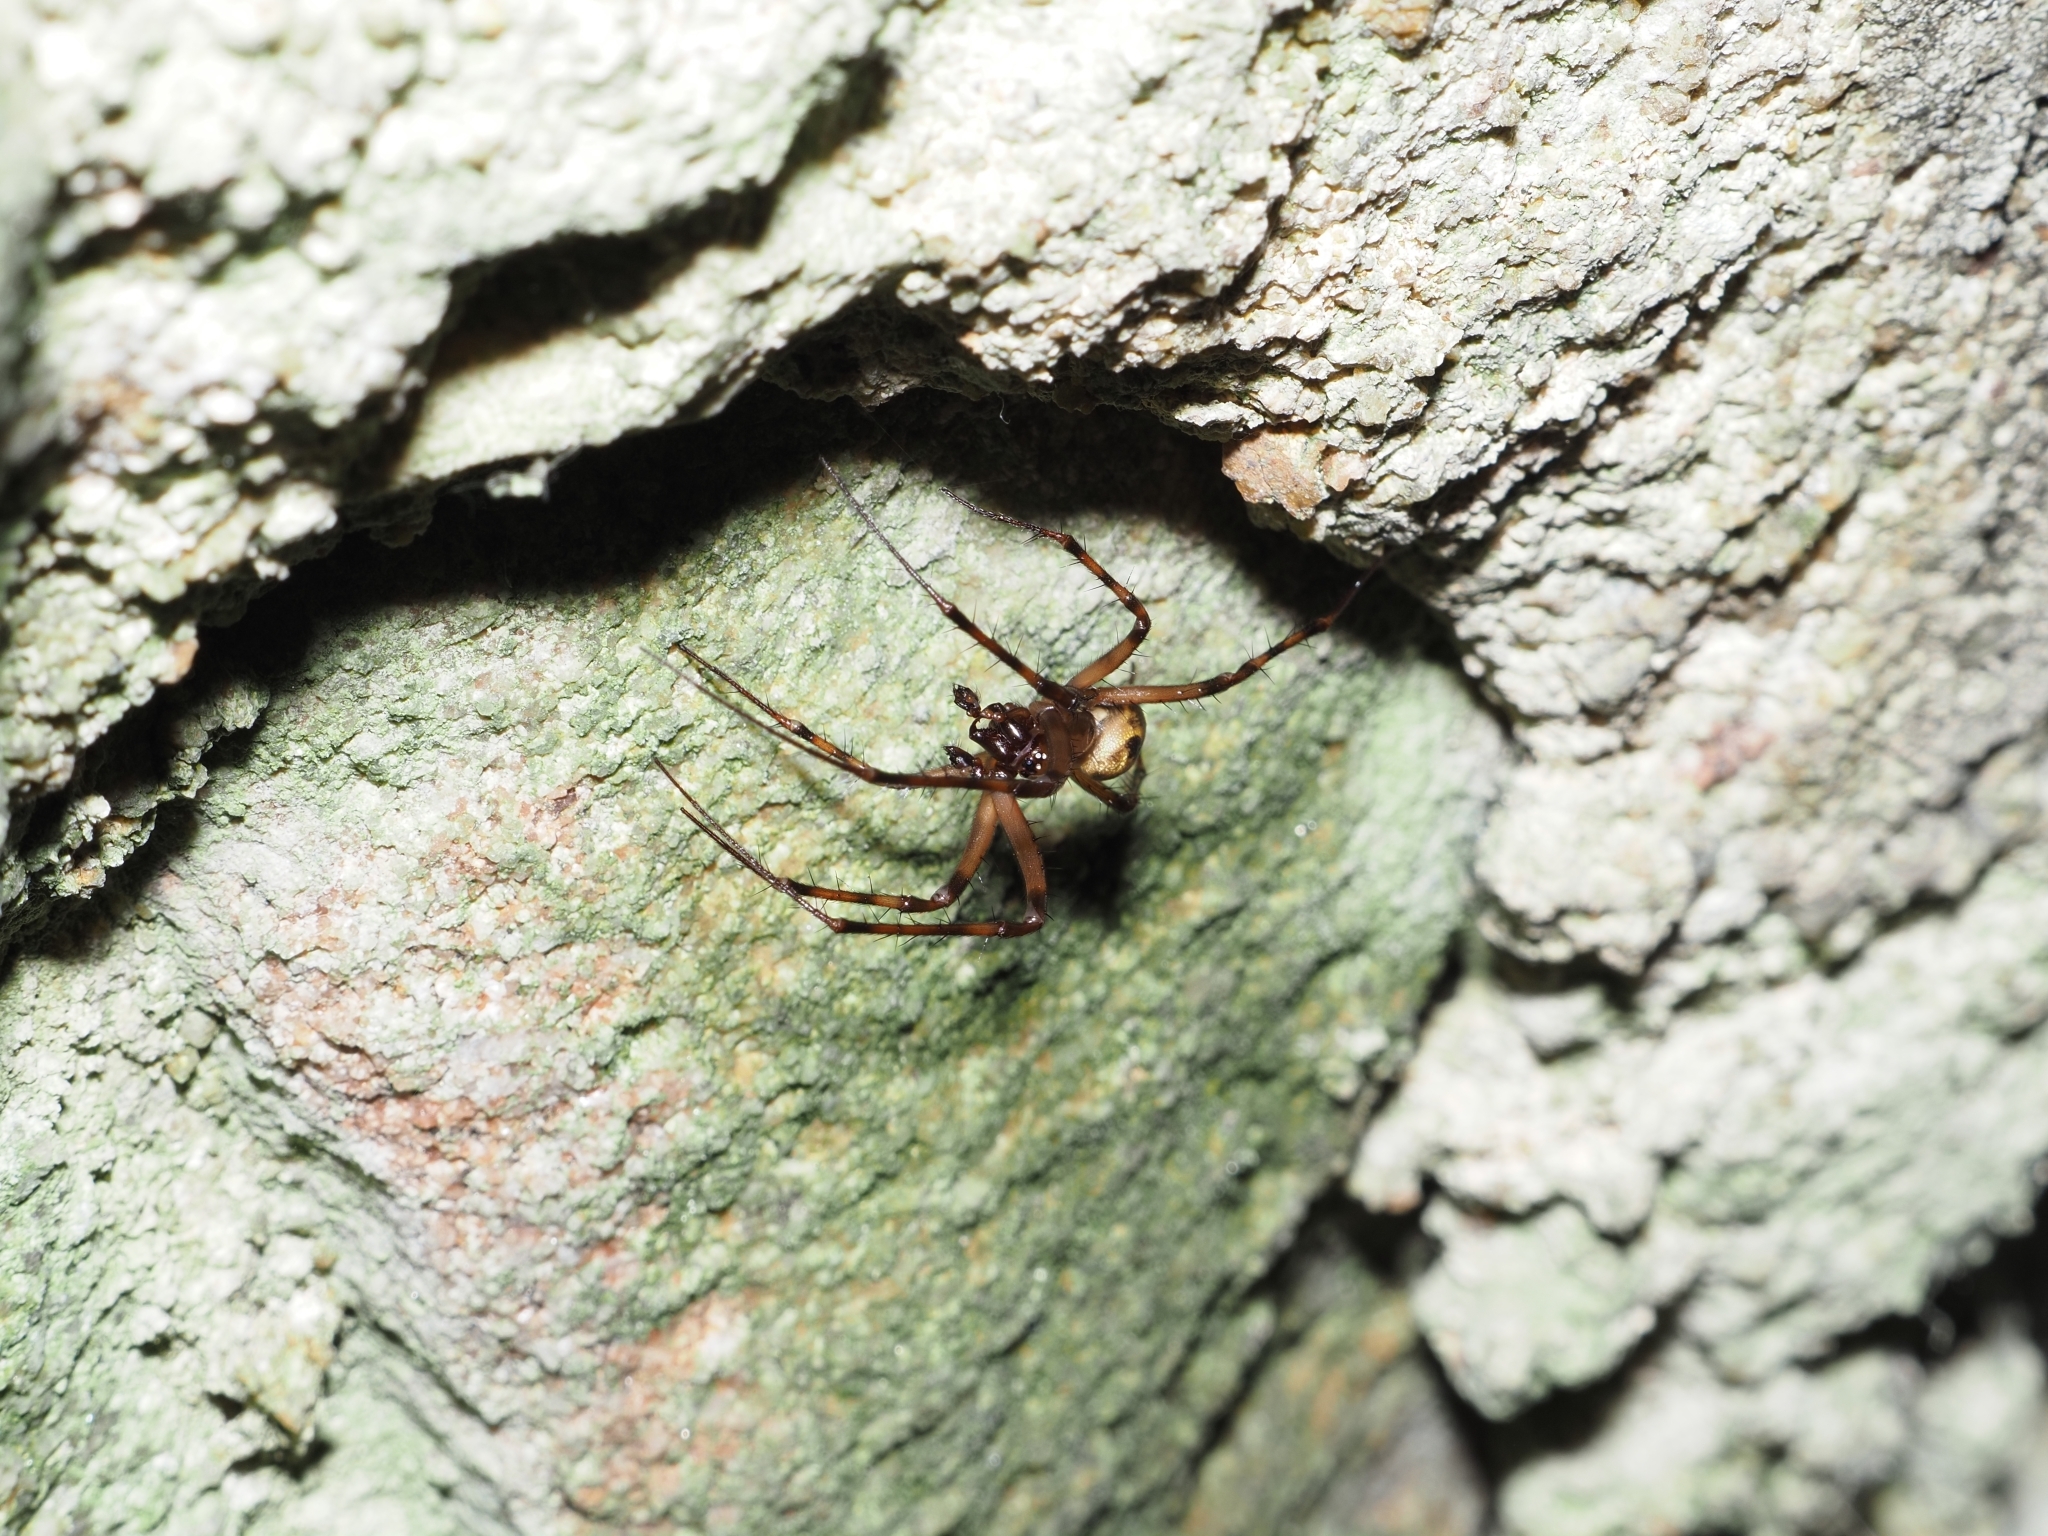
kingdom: Animalia
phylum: Arthropoda
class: Arachnida
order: Araneae
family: Tetragnathidae
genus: Meta
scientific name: Meta menardi
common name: Cave spider
